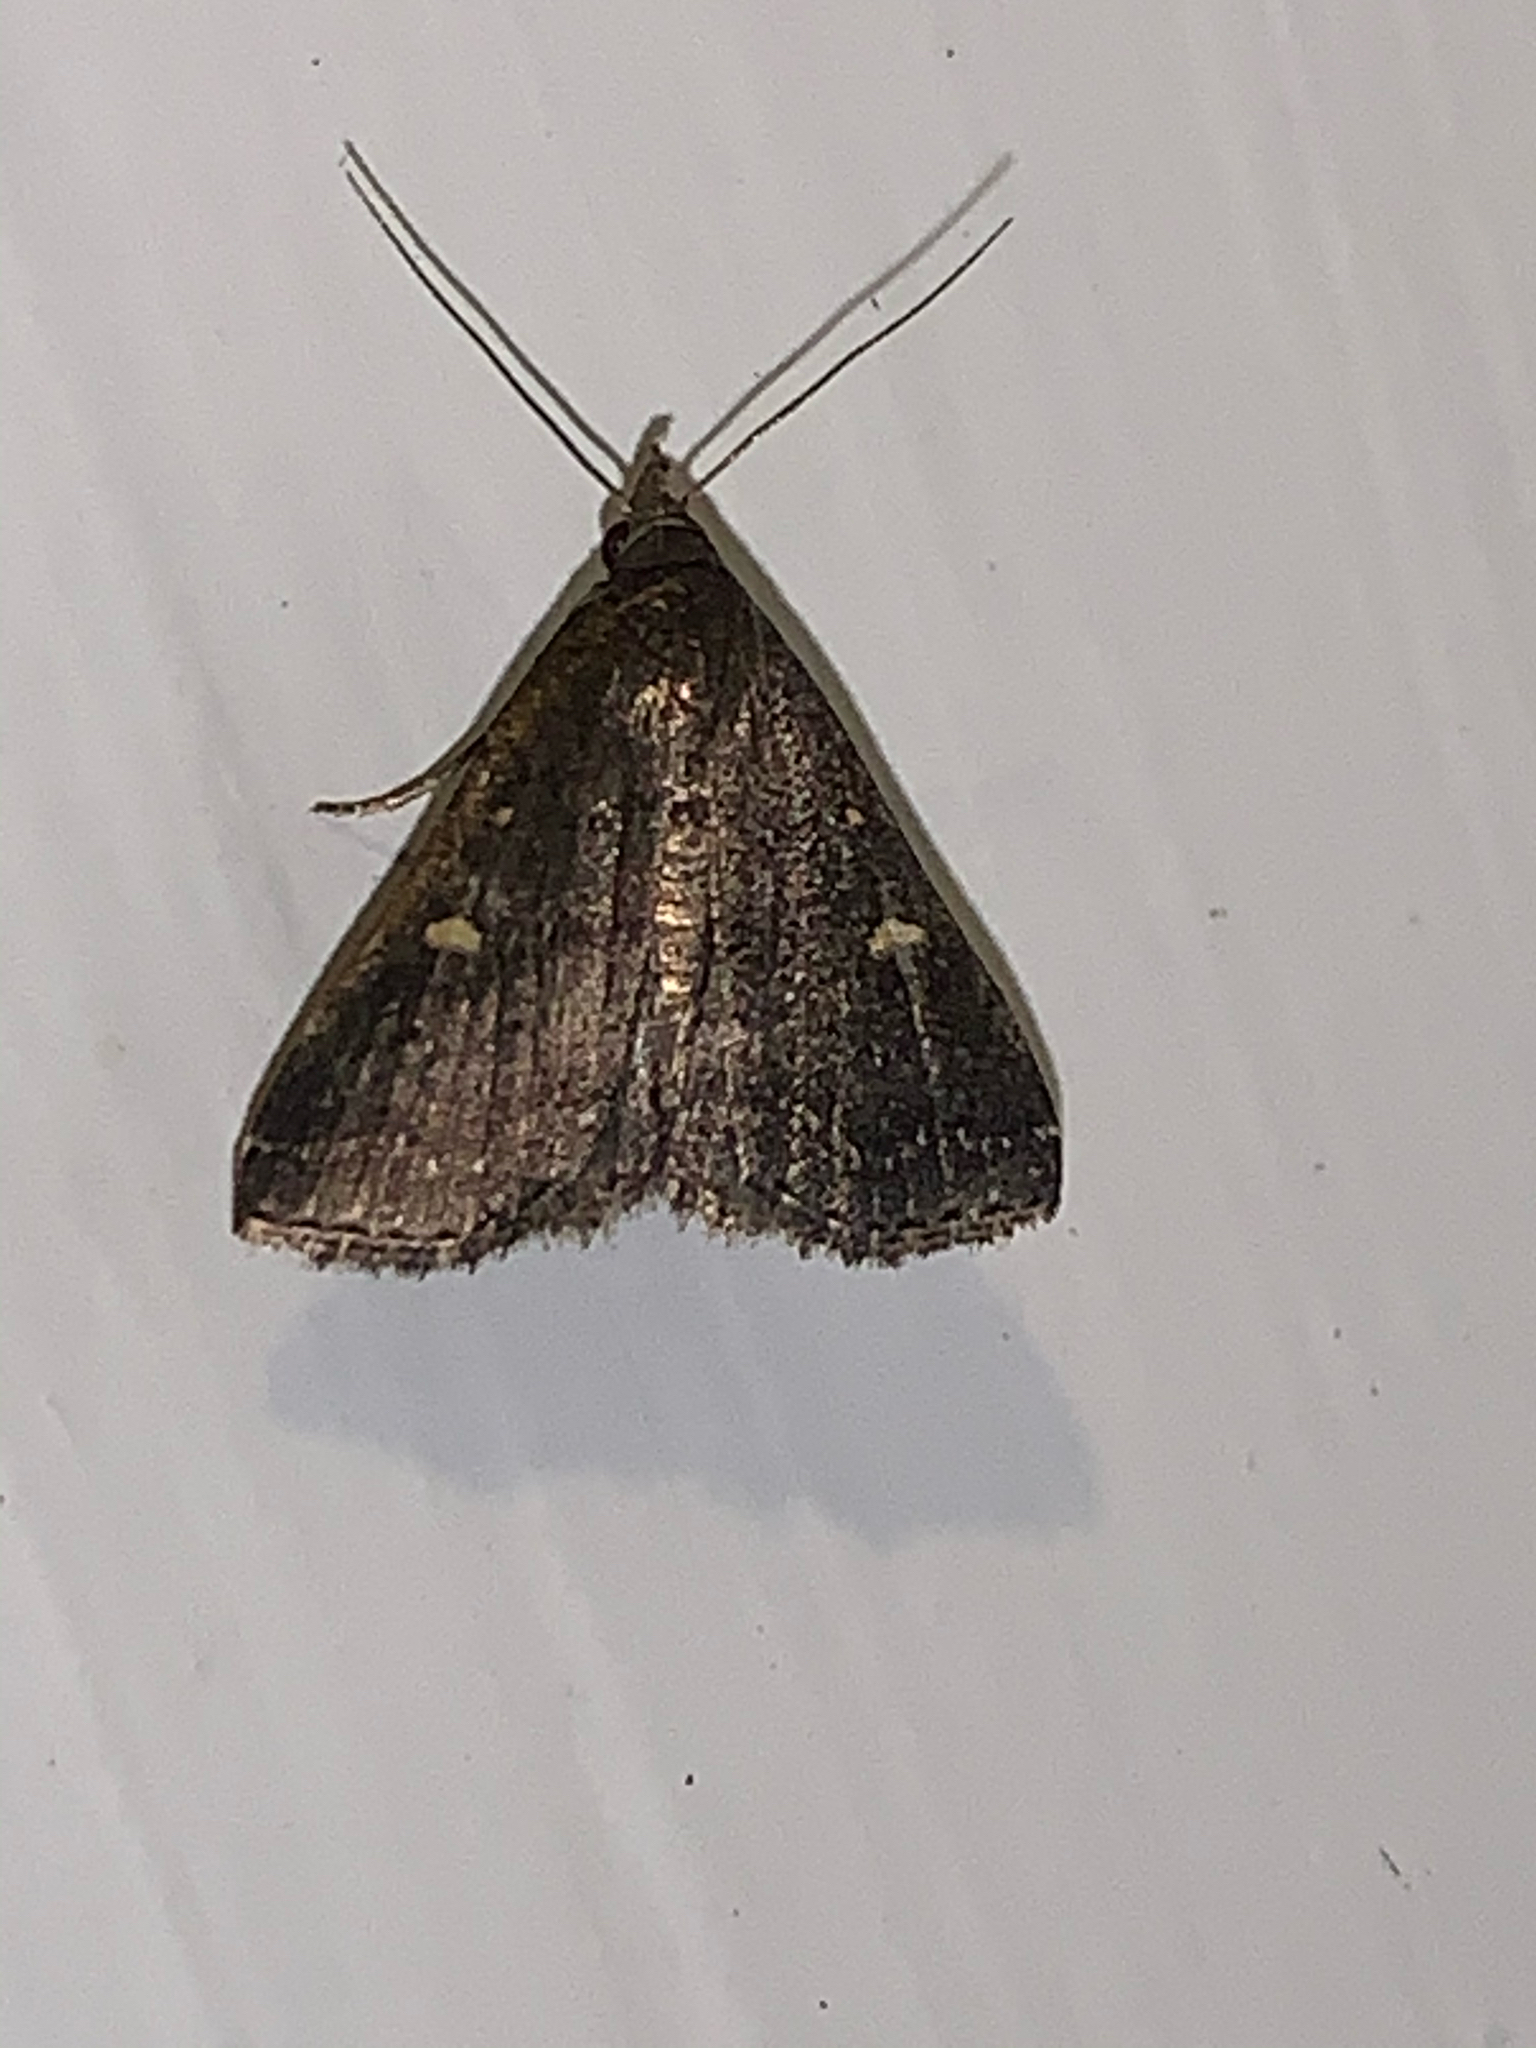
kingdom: Animalia
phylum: Arthropoda
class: Insecta
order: Lepidoptera
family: Erebidae
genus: Tetanolita
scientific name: Tetanolita mynesalis
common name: Smoky tetanolita moth
